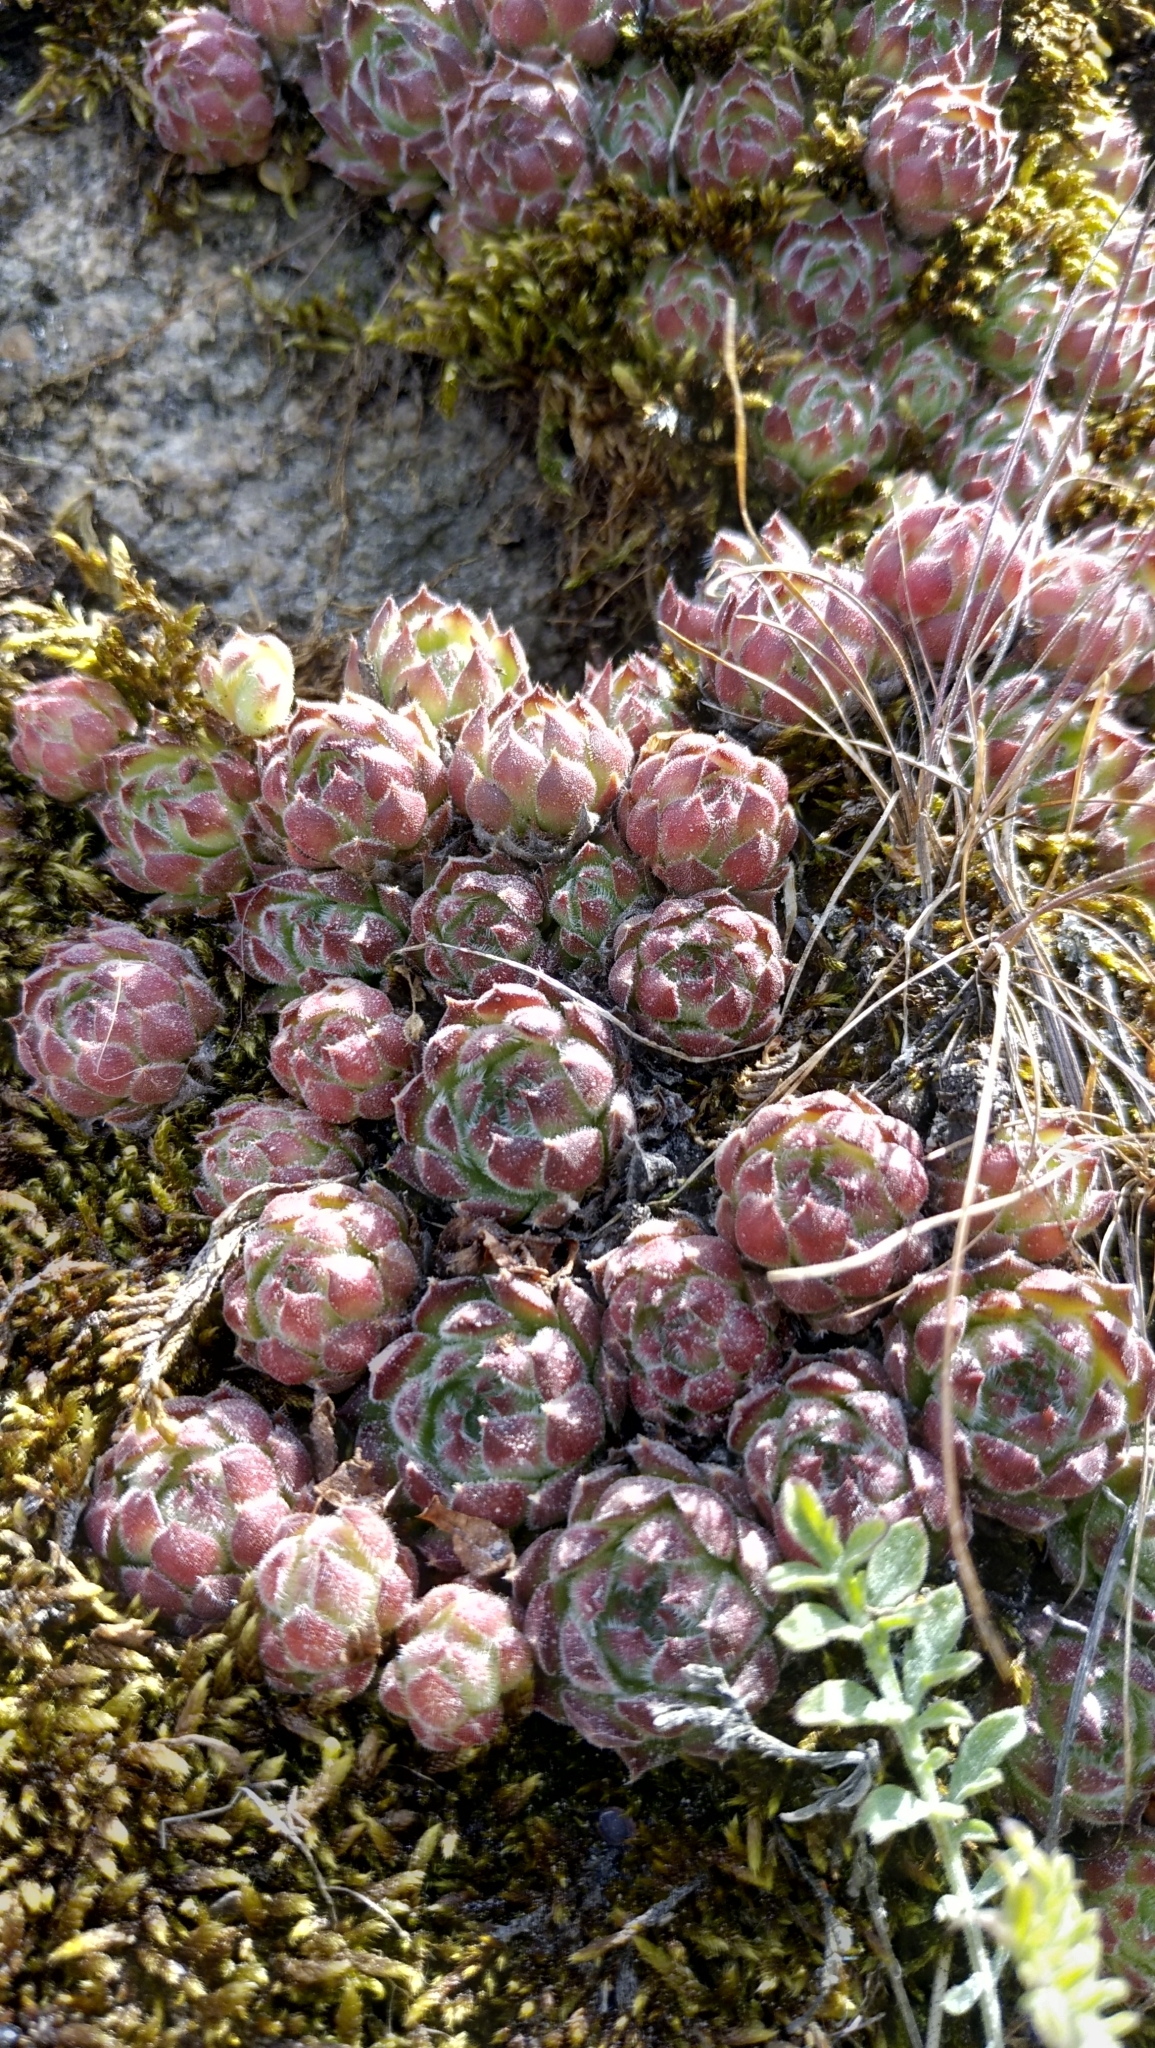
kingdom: Plantae
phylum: Tracheophyta
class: Magnoliopsida
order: Saxifragales
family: Crassulaceae
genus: Sempervivum
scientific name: Sempervivum ruthenicum
